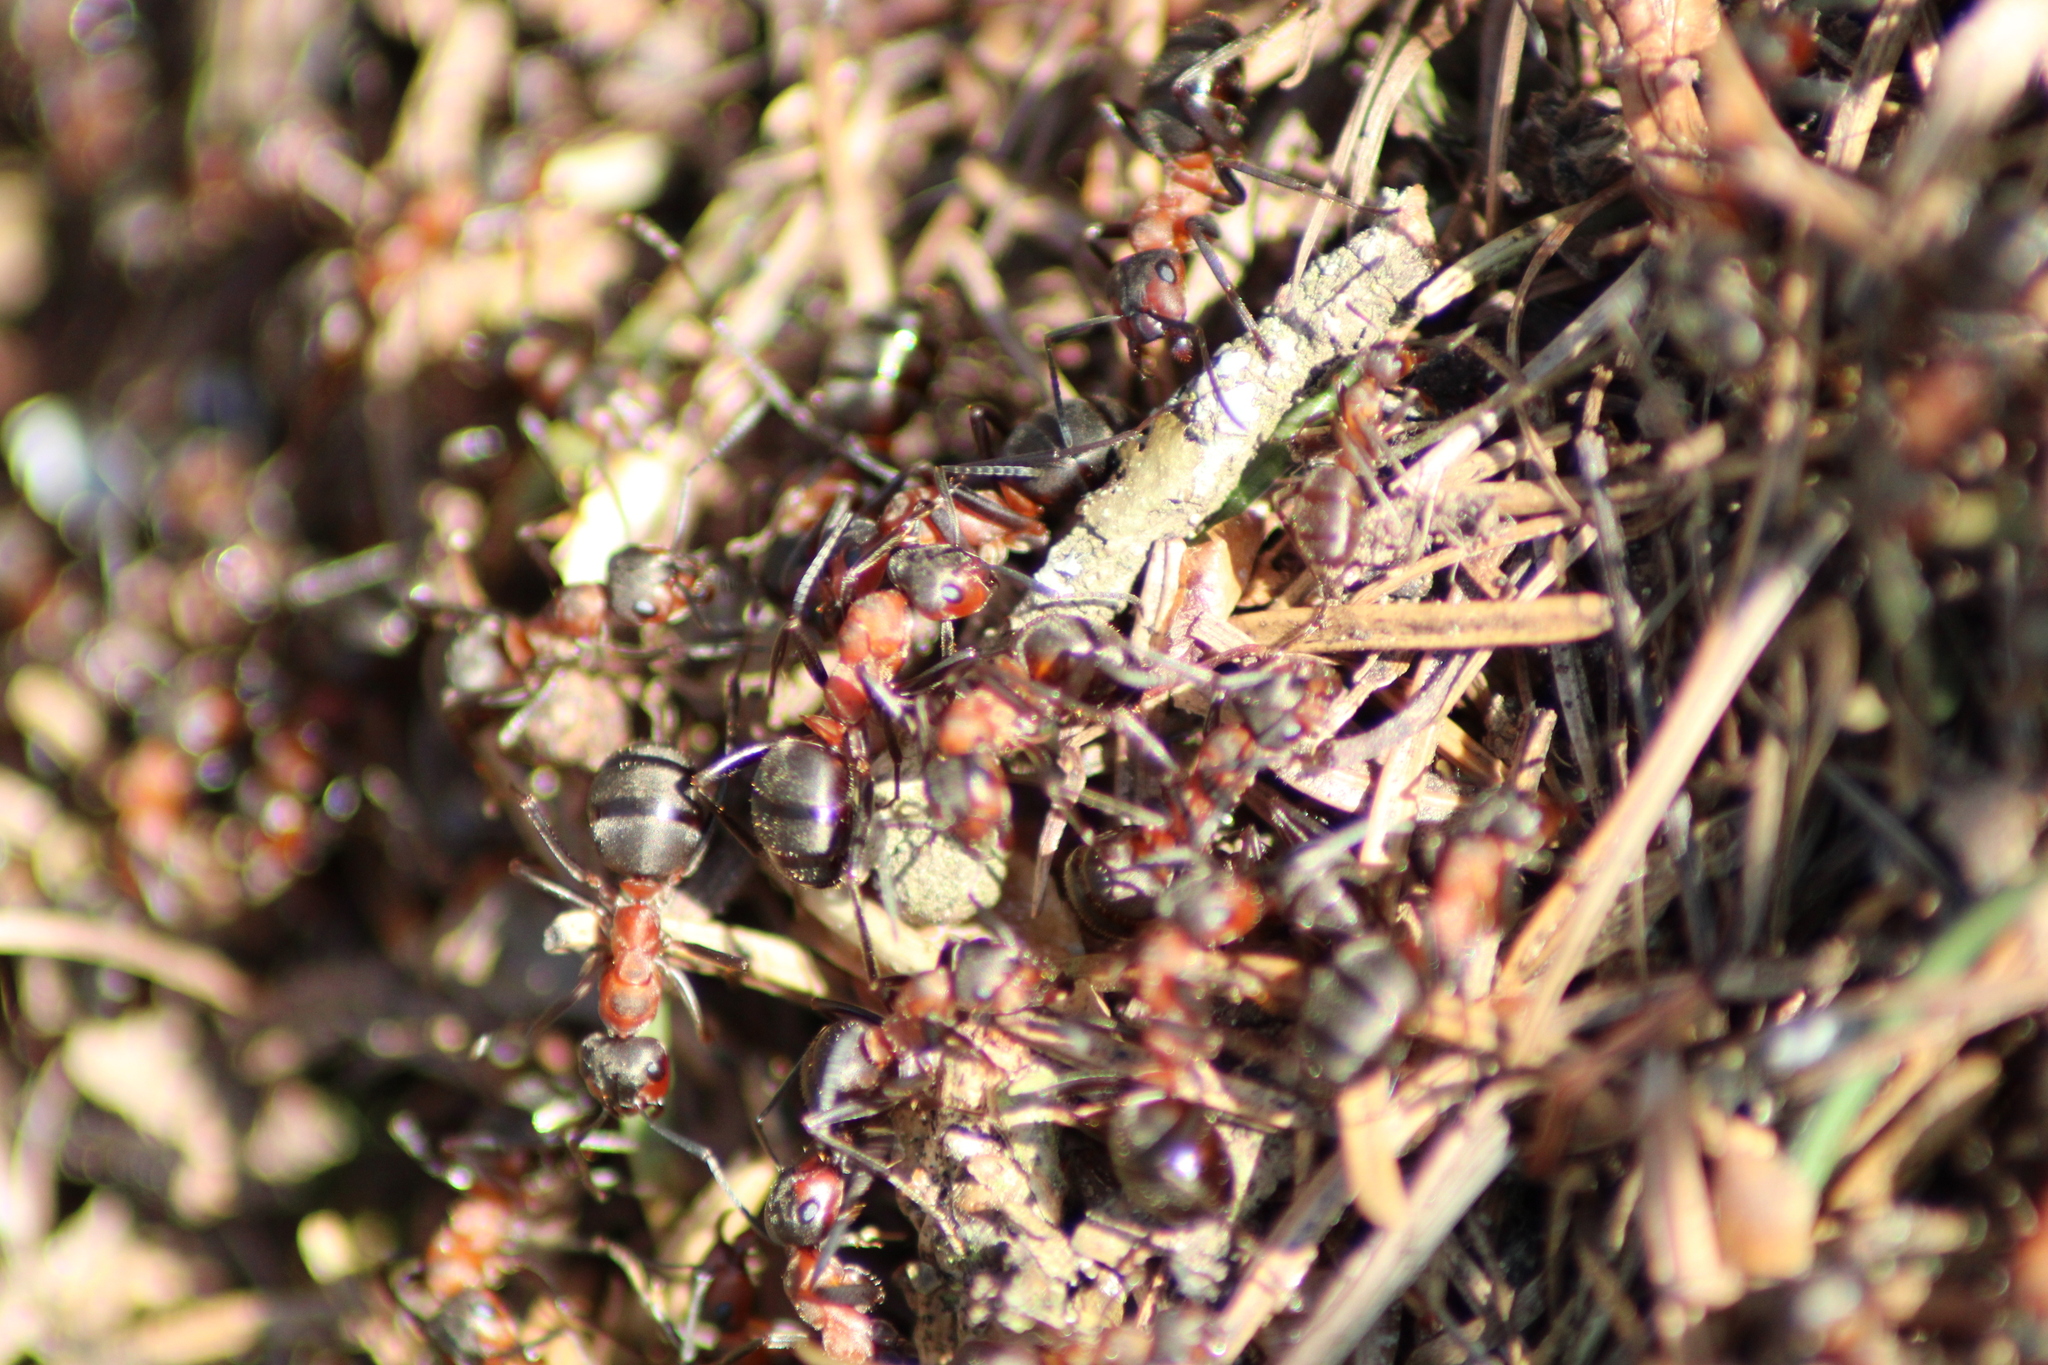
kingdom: Animalia
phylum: Arthropoda
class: Insecta
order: Hymenoptera
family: Formicidae
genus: Formica
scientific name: Formica rufa
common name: Red wood ant
